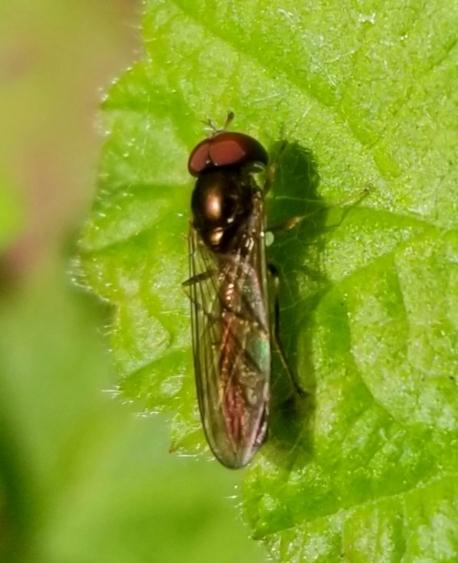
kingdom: Animalia
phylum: Arthropoda
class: Insecta
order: Diptera
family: Syrphidae
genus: Melanostoma
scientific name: Melanostoma mellina
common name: Hover fly
